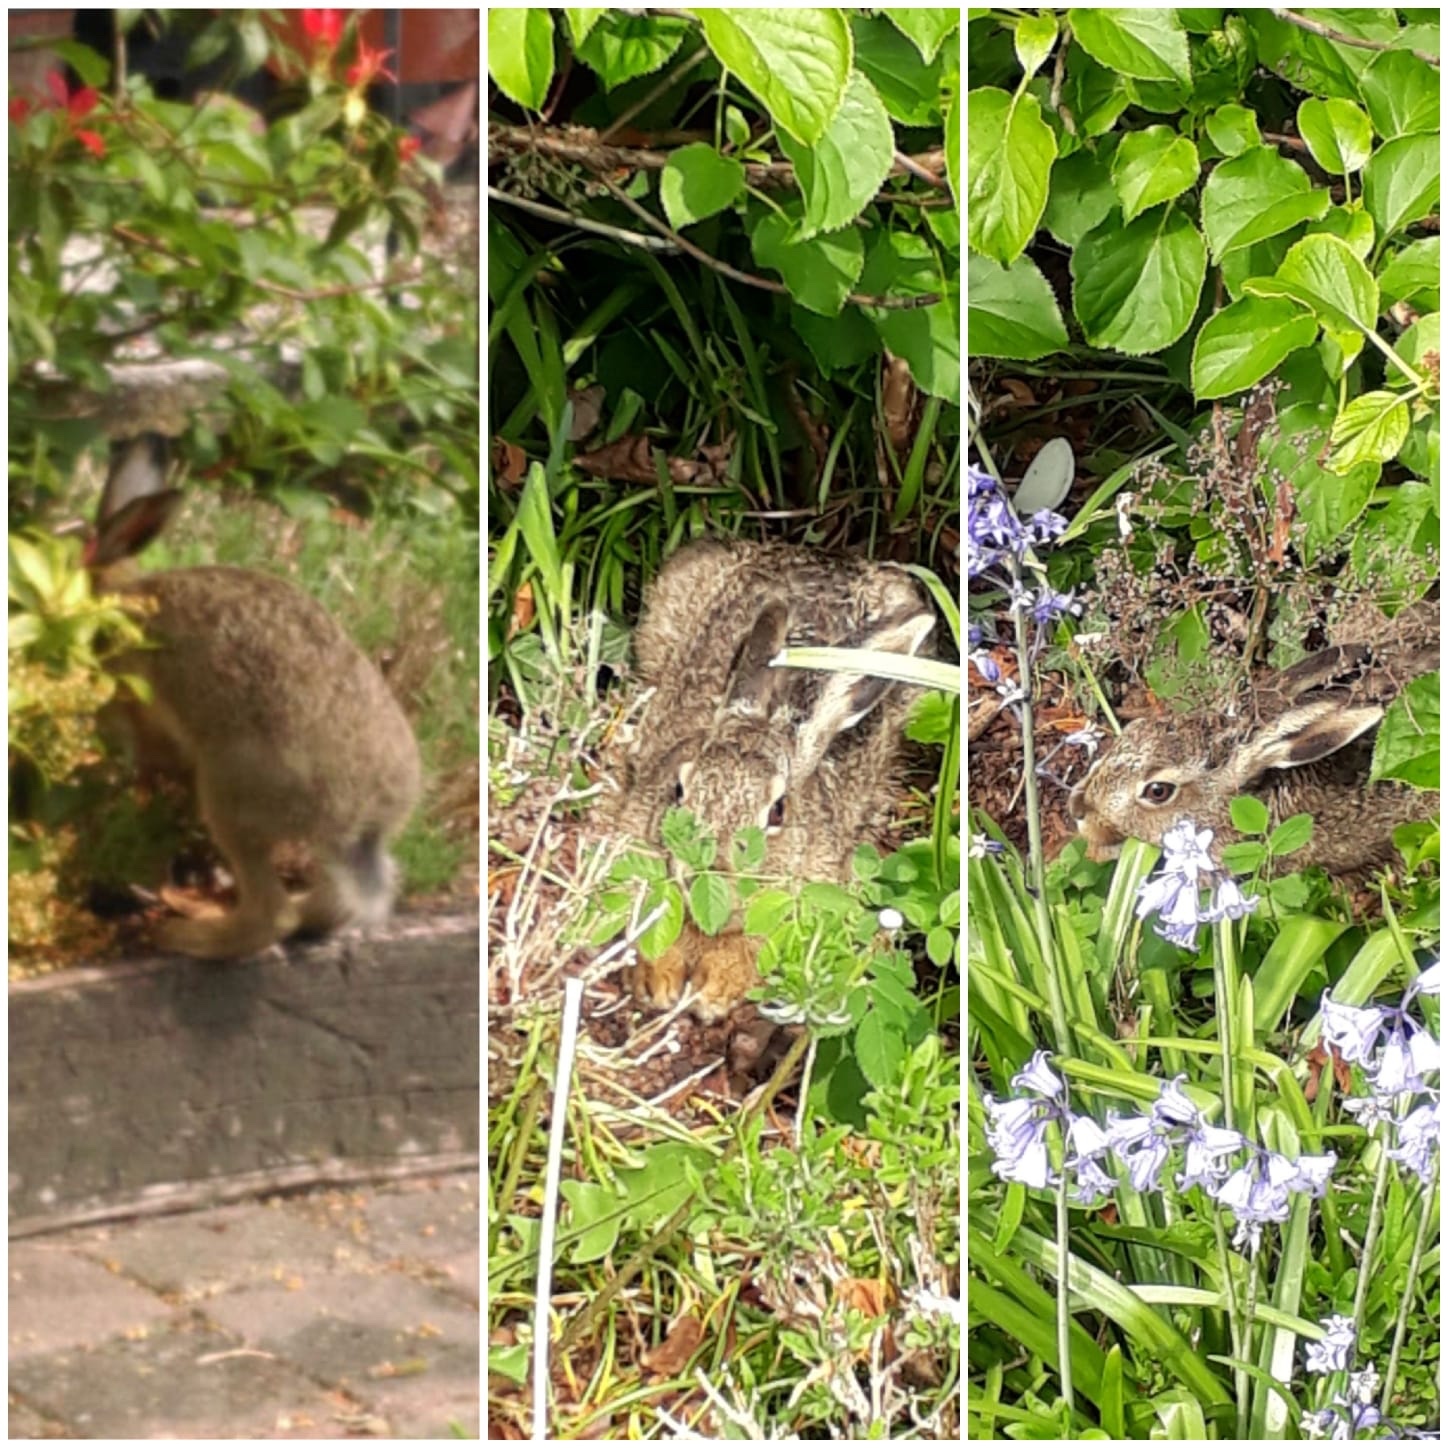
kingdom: Animalia
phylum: Chordata
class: Mammalia
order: Lagomorpha
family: Leporidae
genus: Lepus
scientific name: Lepus europaeus
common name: European hare
